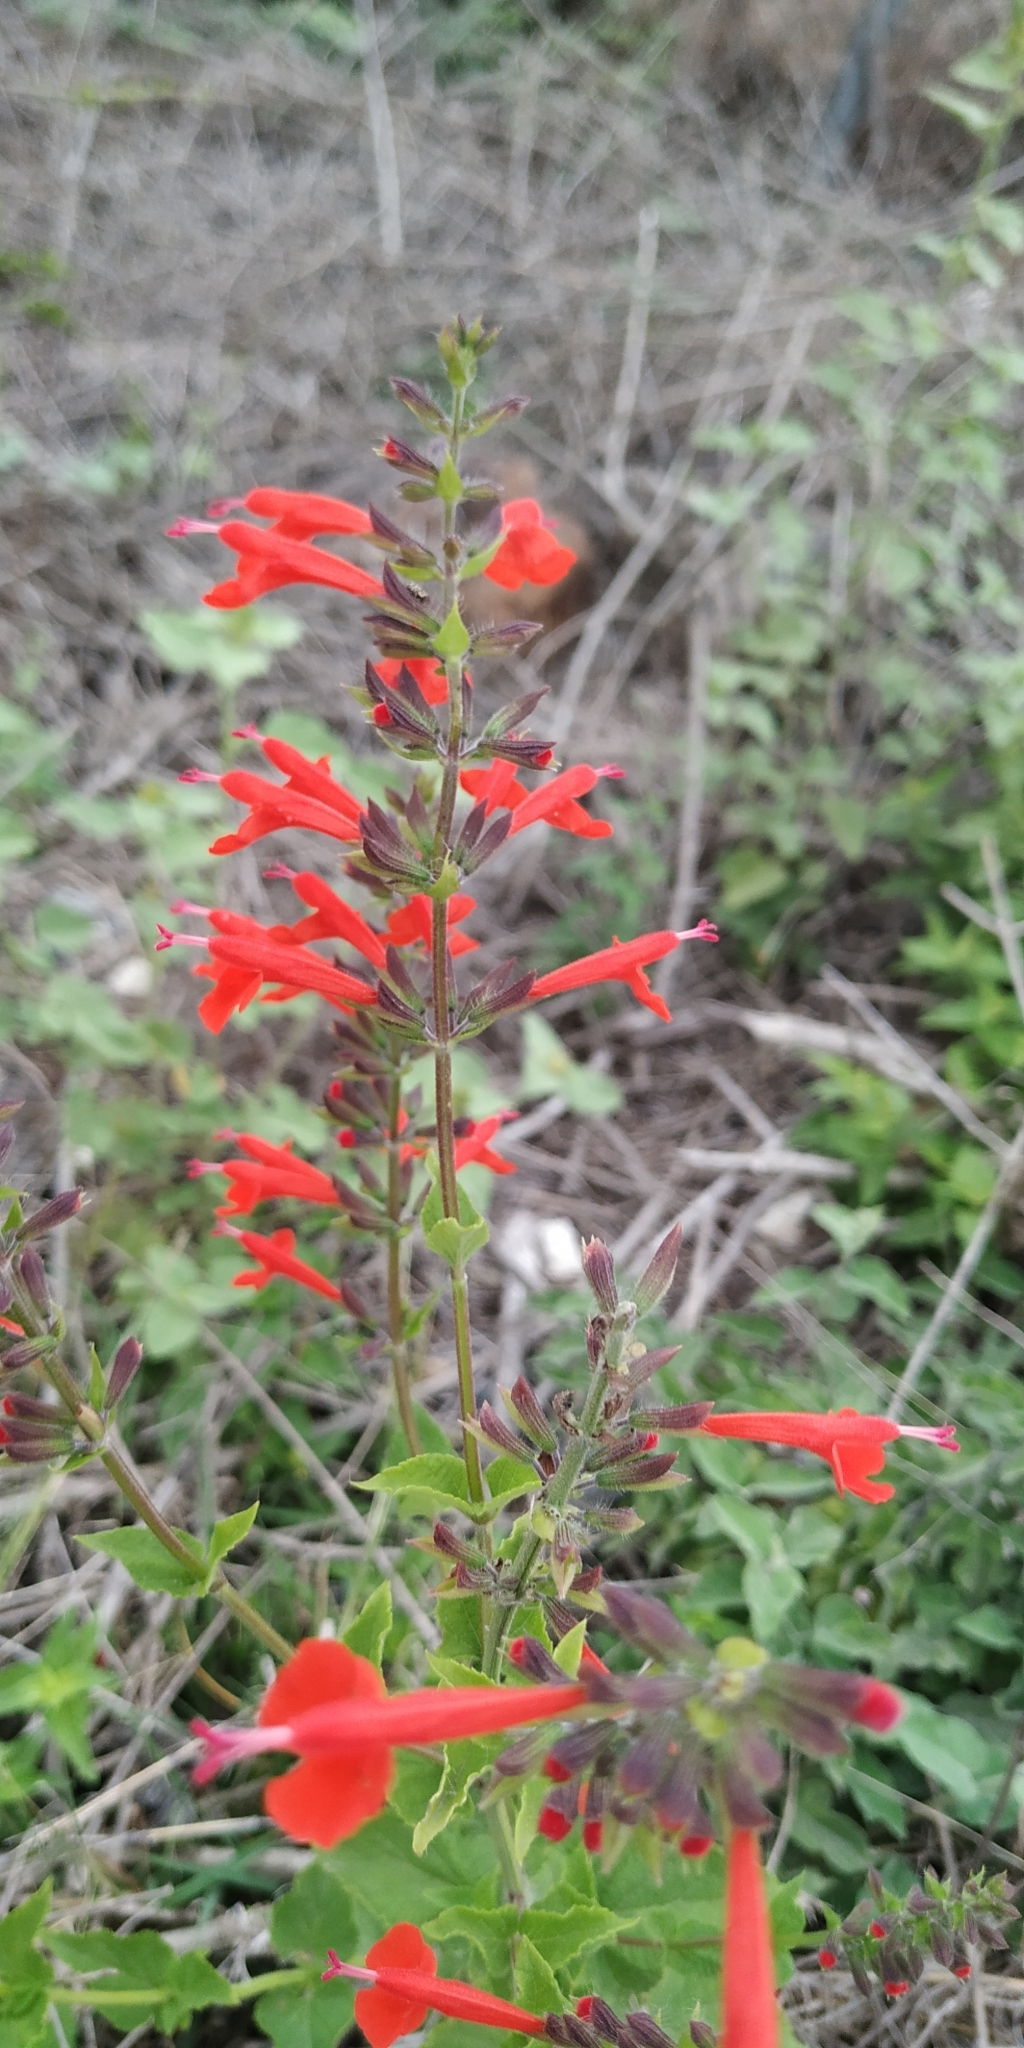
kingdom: Plantae
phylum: Tracheophyta
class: Magnoliopsida
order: Lamiales
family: Lamiaceae
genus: Salvia
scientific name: Salvia coccinea
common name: Blood sage
